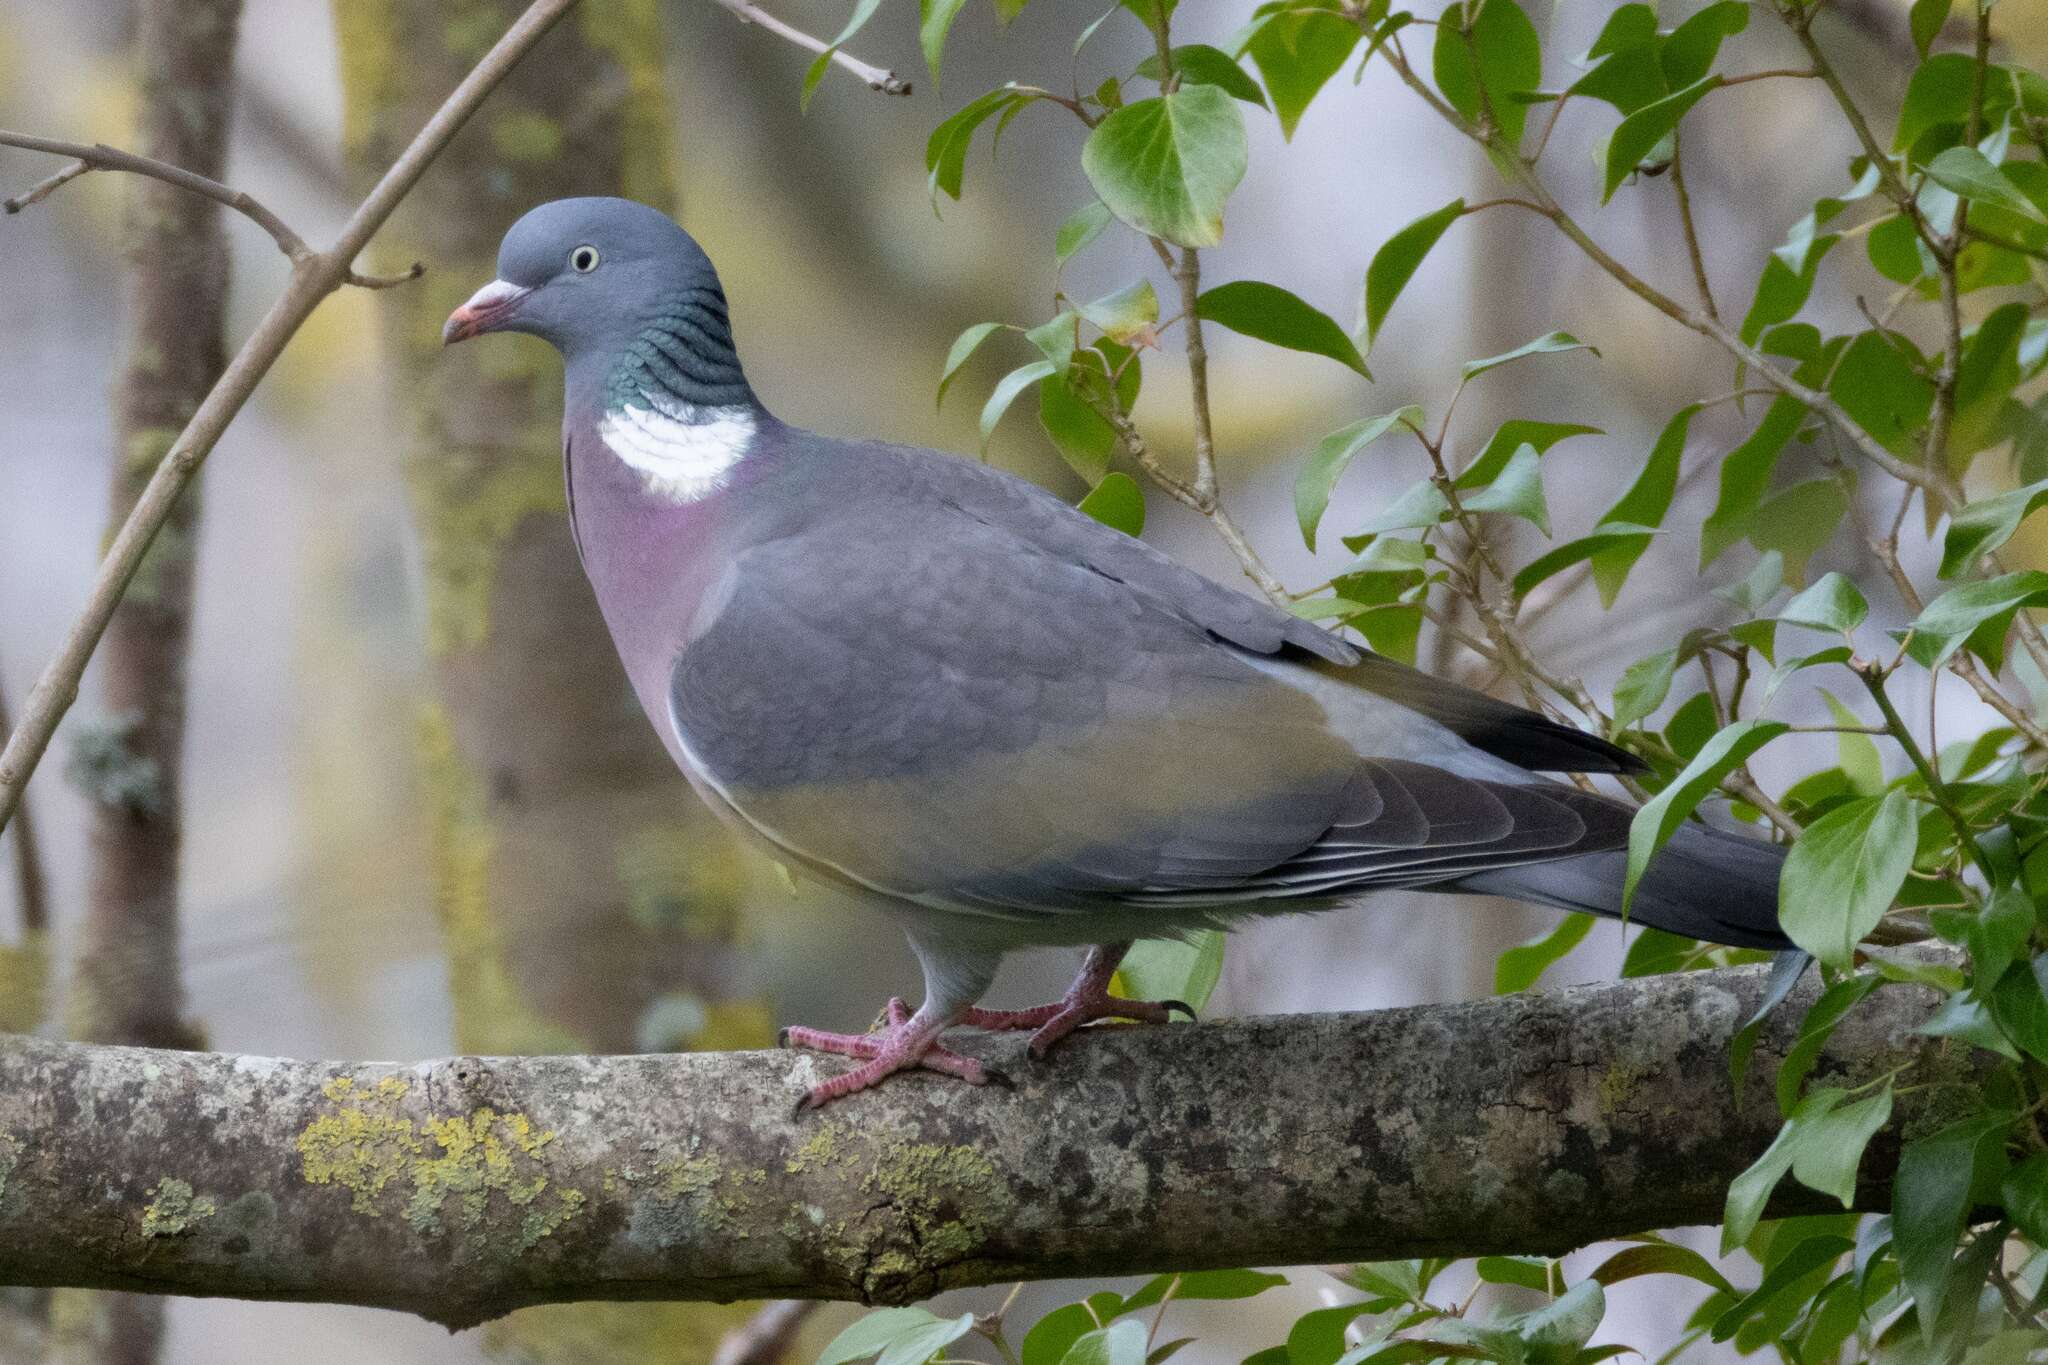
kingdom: Animalia
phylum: Chordata
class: Aves
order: Columbiformes
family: Columbidae
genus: Columba
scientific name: Columba palumbus
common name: Common wood pigeon
